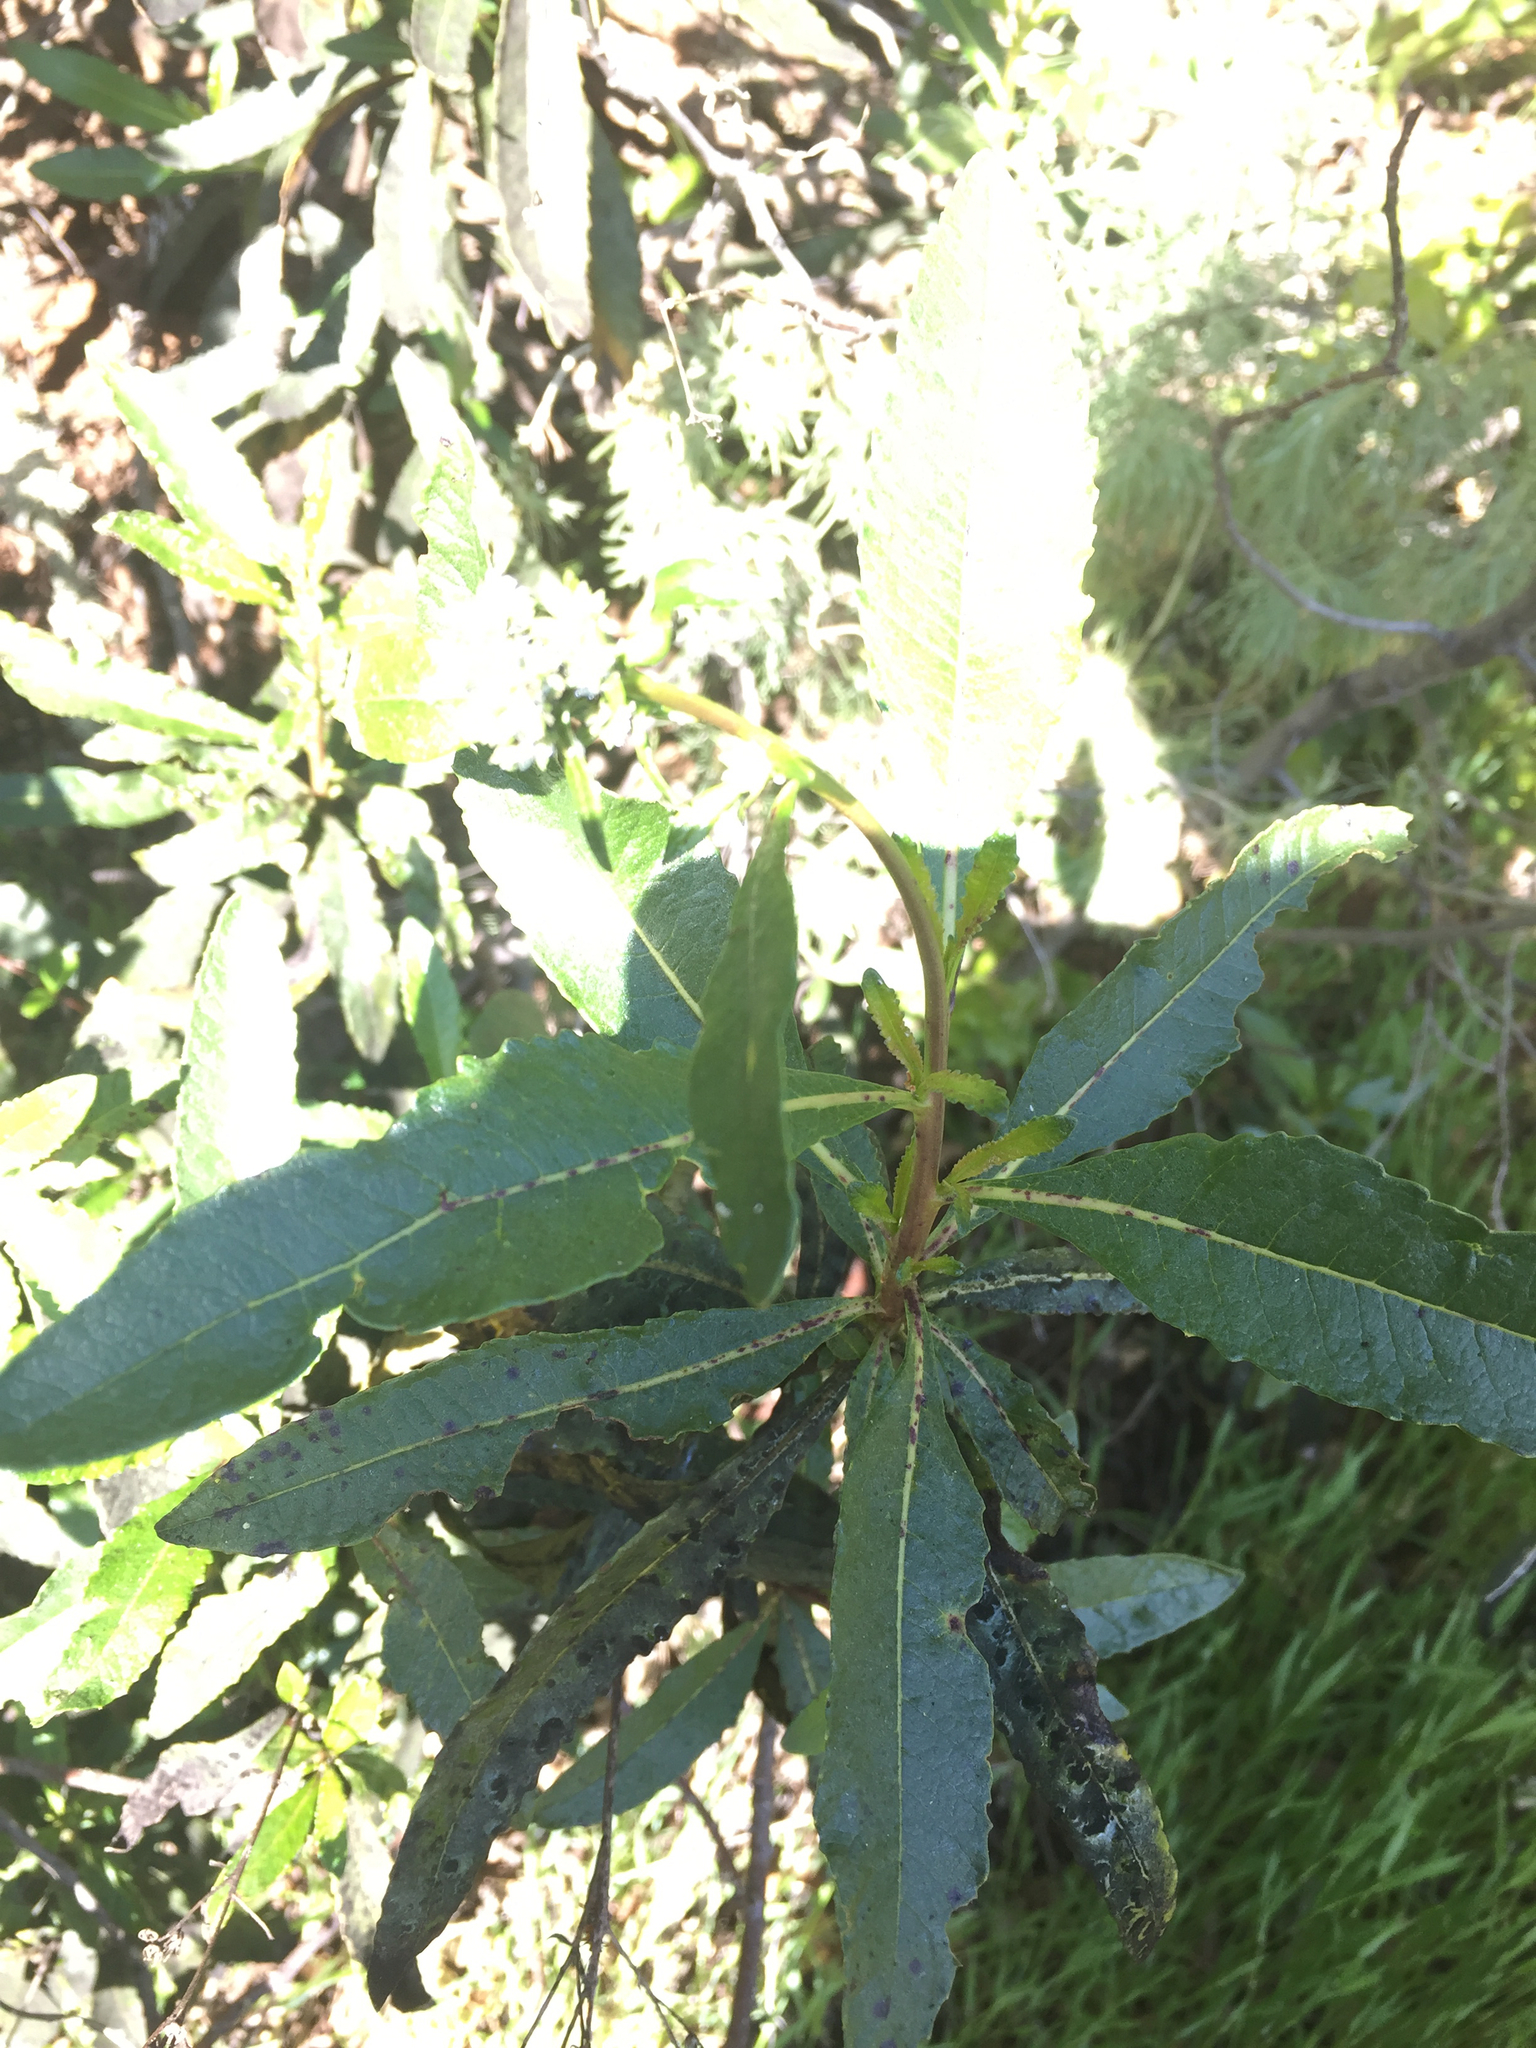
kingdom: Plantae
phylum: Tracheophyta
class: Magnoliopsida
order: Boraginales
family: Namaceae
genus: Eriodictyon
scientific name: Eriodictyon californicum
